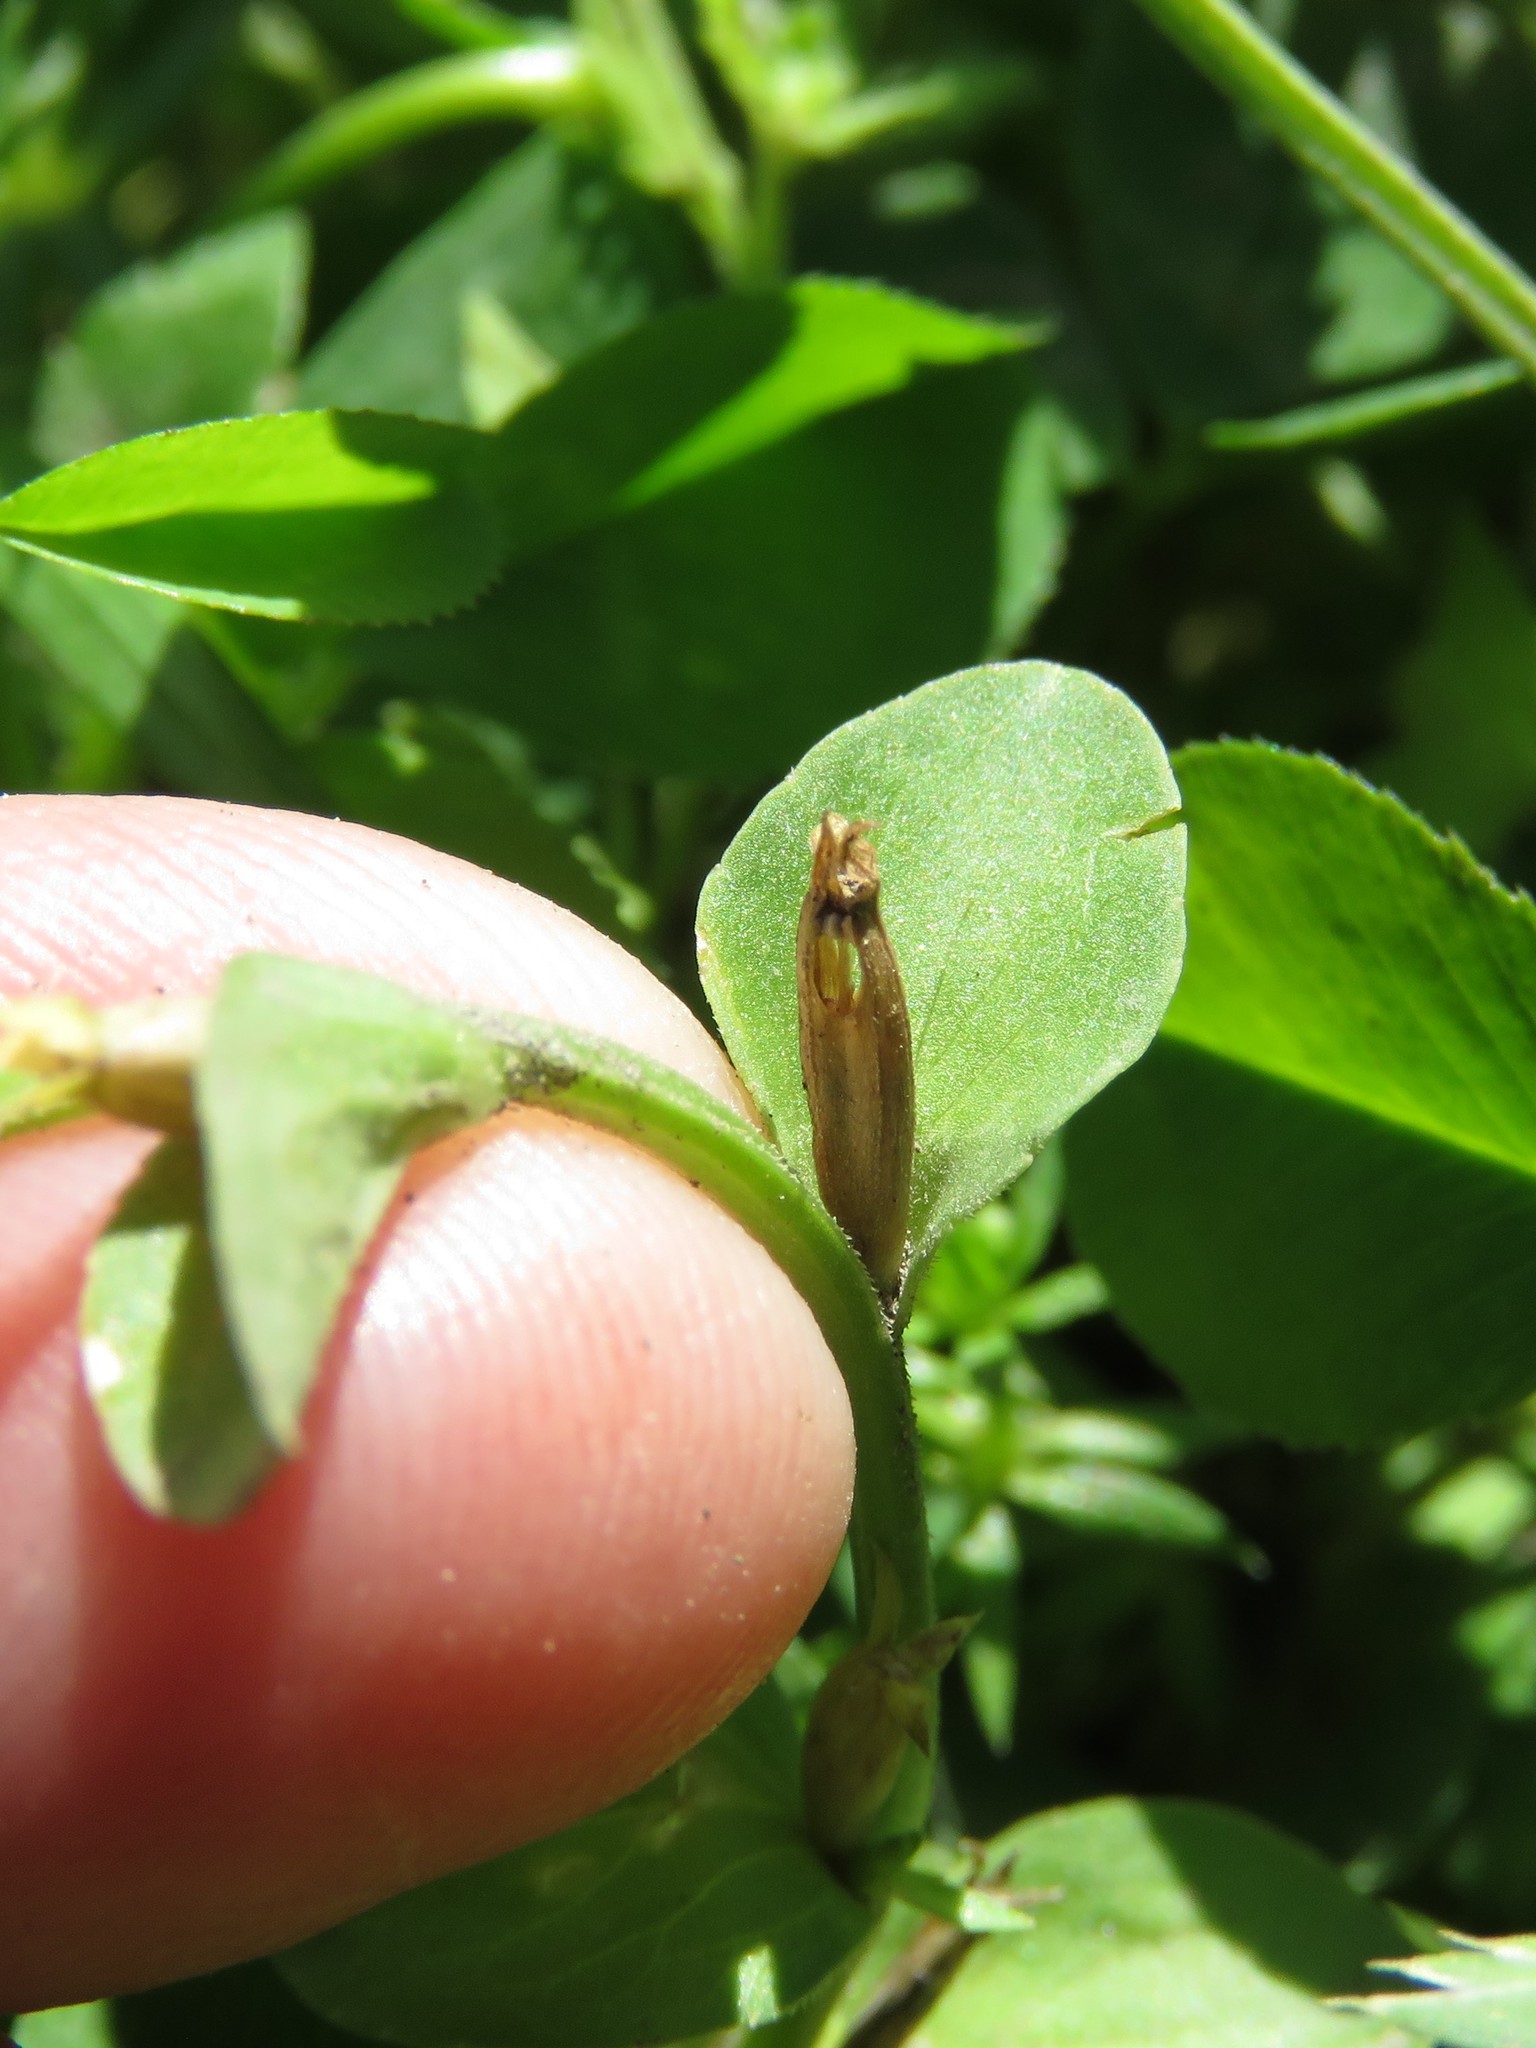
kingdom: Plantae
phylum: Tracheophyta
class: Magnoliopsida
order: Asterales
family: Campanulaceae
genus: Triodanis
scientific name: Triodanis biflora
